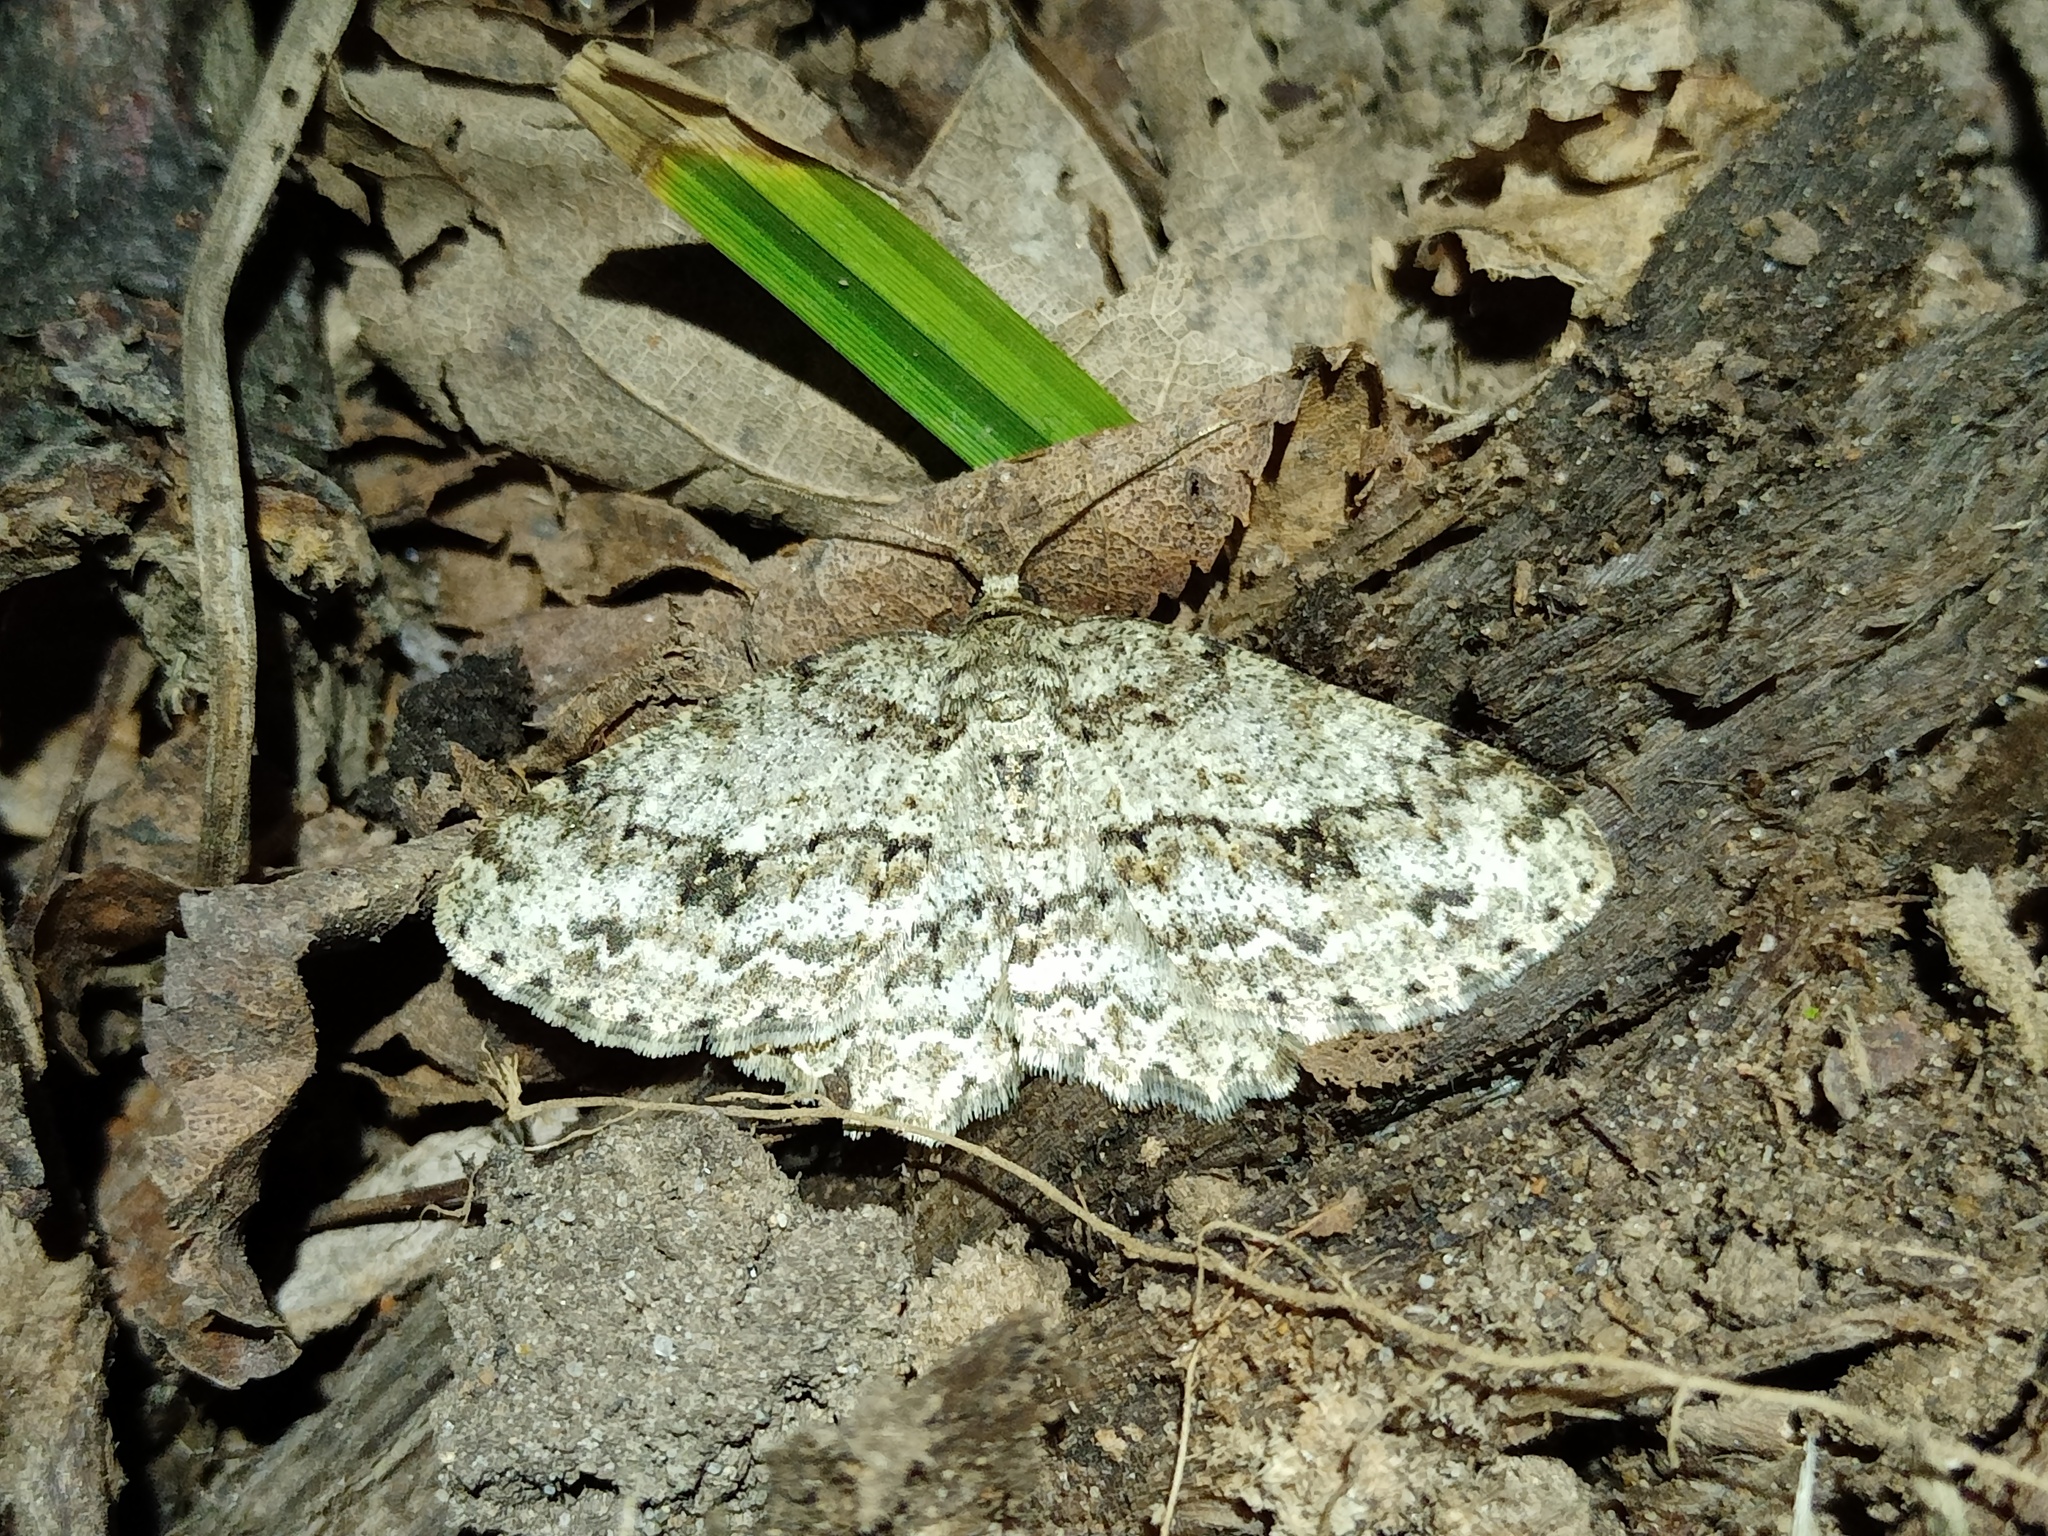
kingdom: Animalia
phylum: Arthropoda
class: Insecta
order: Lepidoptera
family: Geometridae
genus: Ectropis
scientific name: Ectropis crepuscularia
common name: Engrailed
